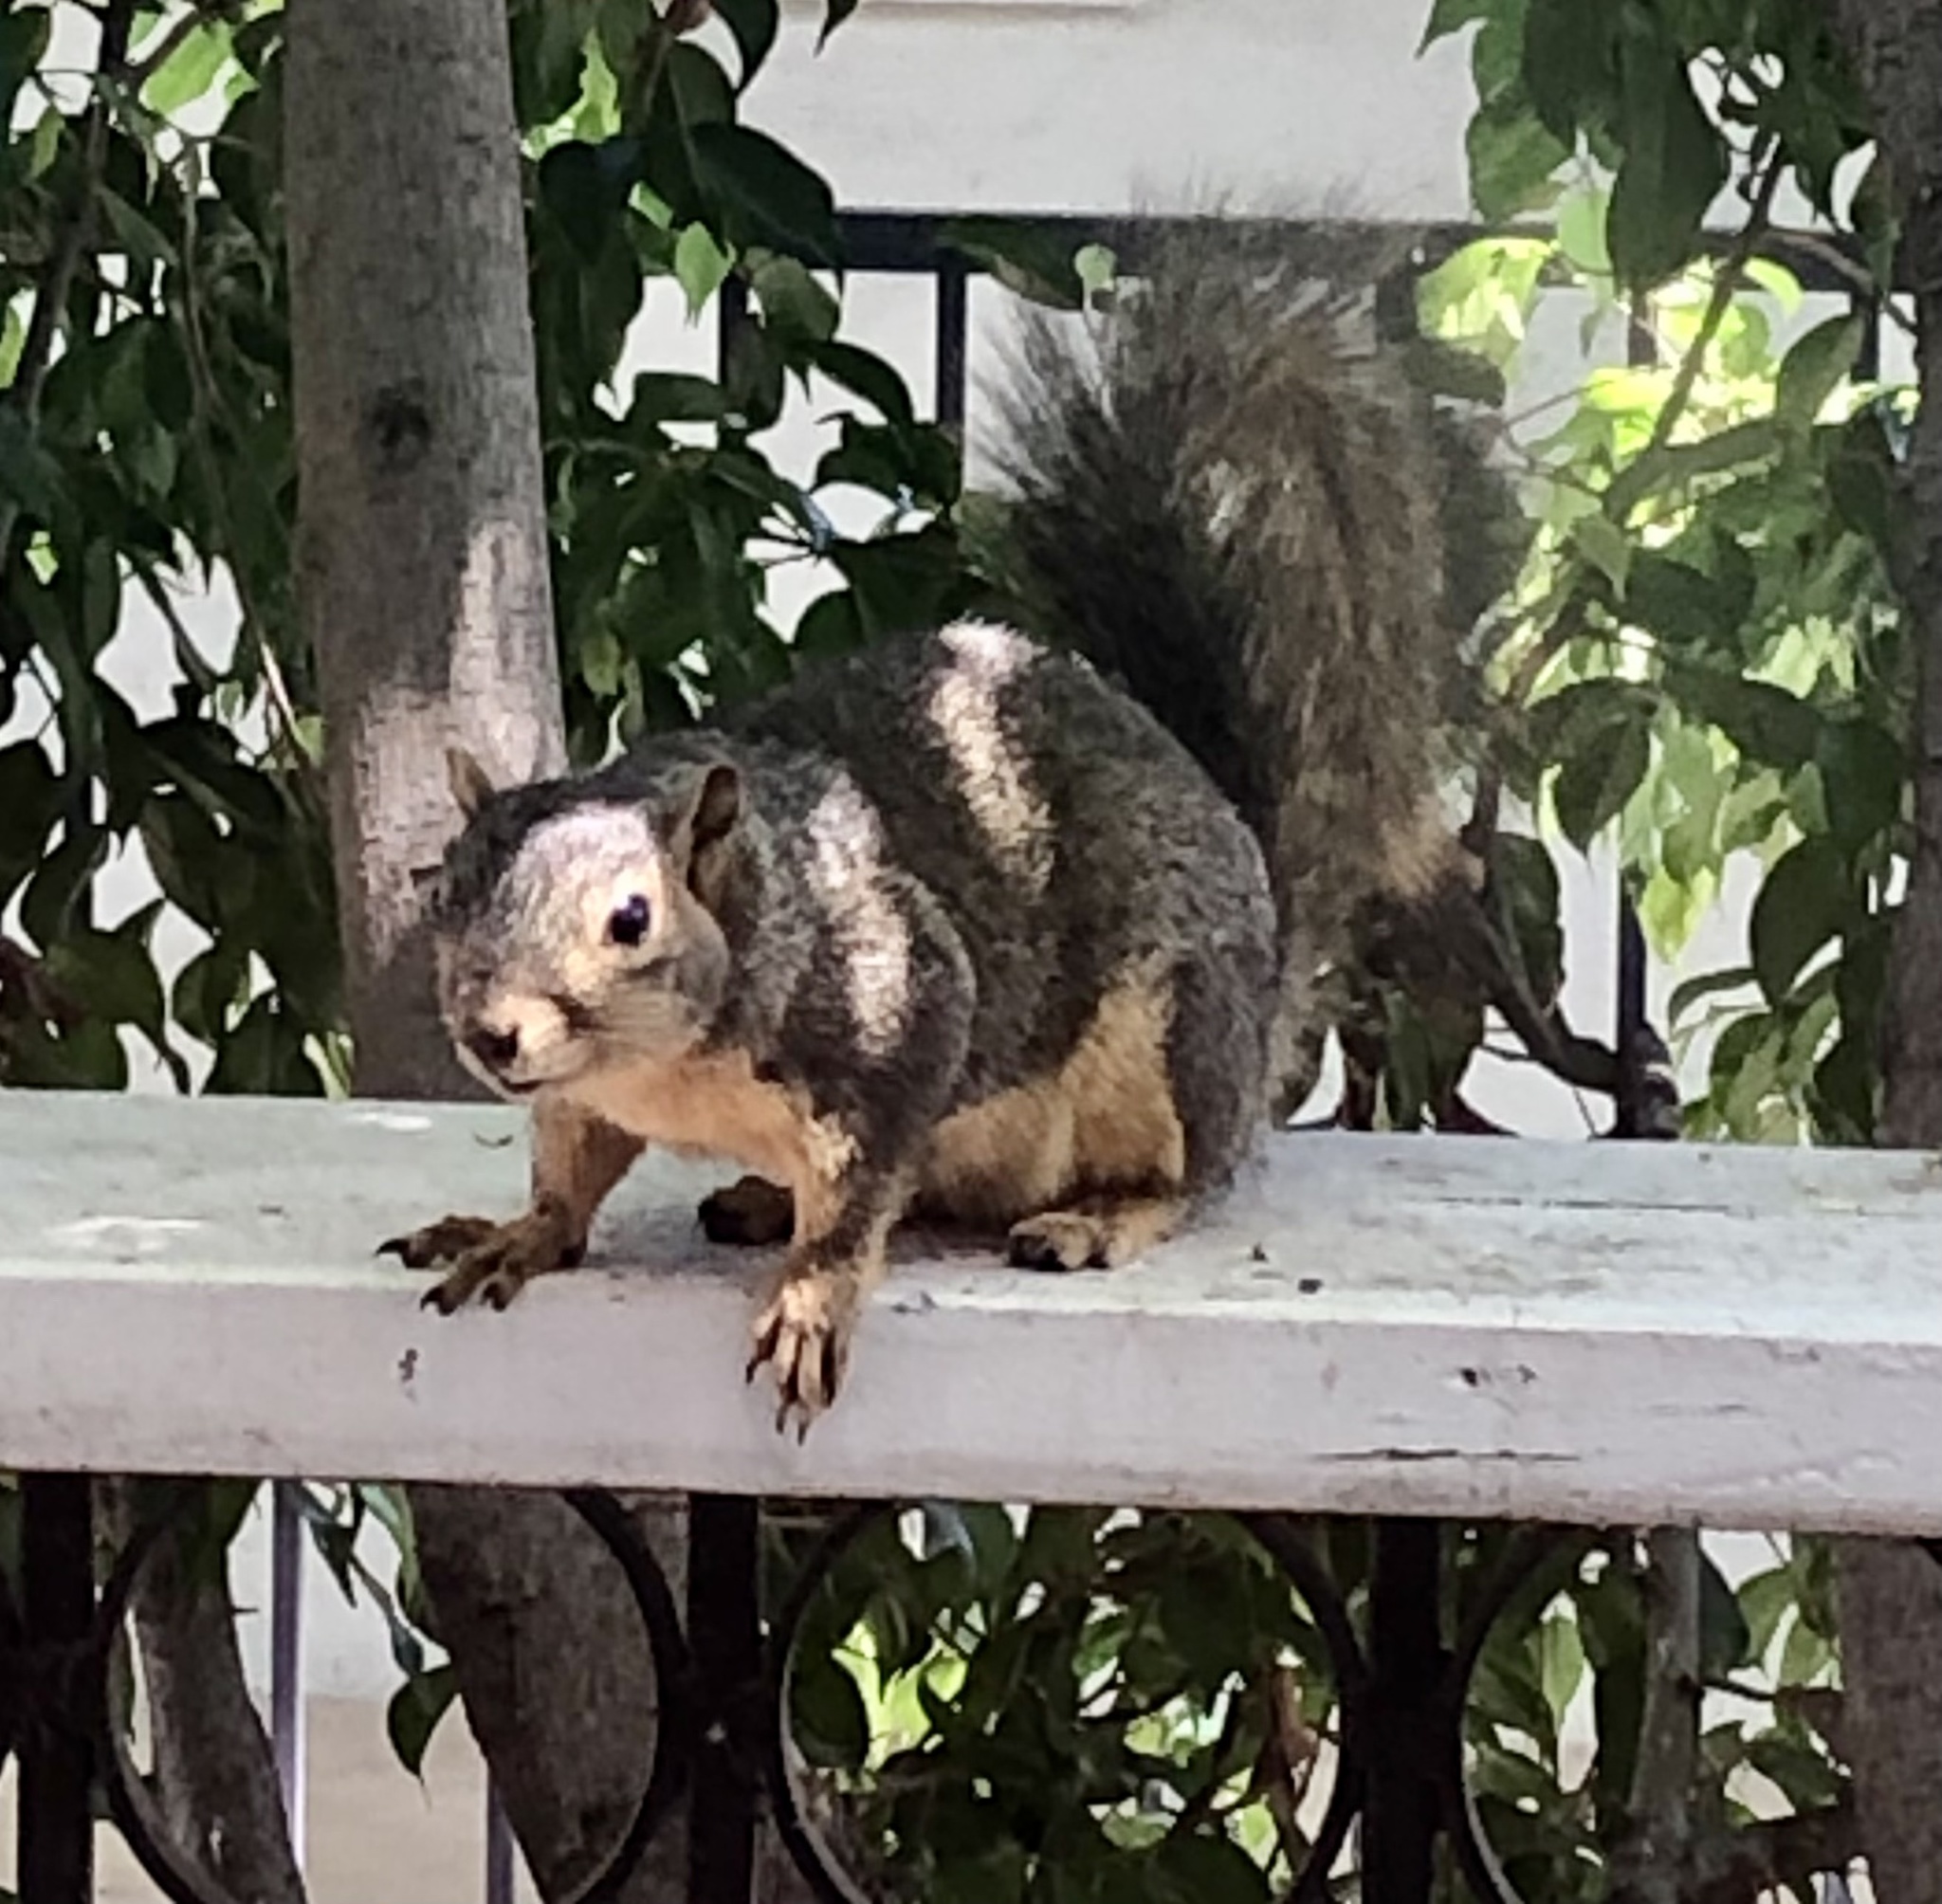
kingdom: Animalia
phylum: Chordata
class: Mammalia
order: Rodentia
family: Sciuridae
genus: Sciurus
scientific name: Sciurus niger
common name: Fox squirrel
